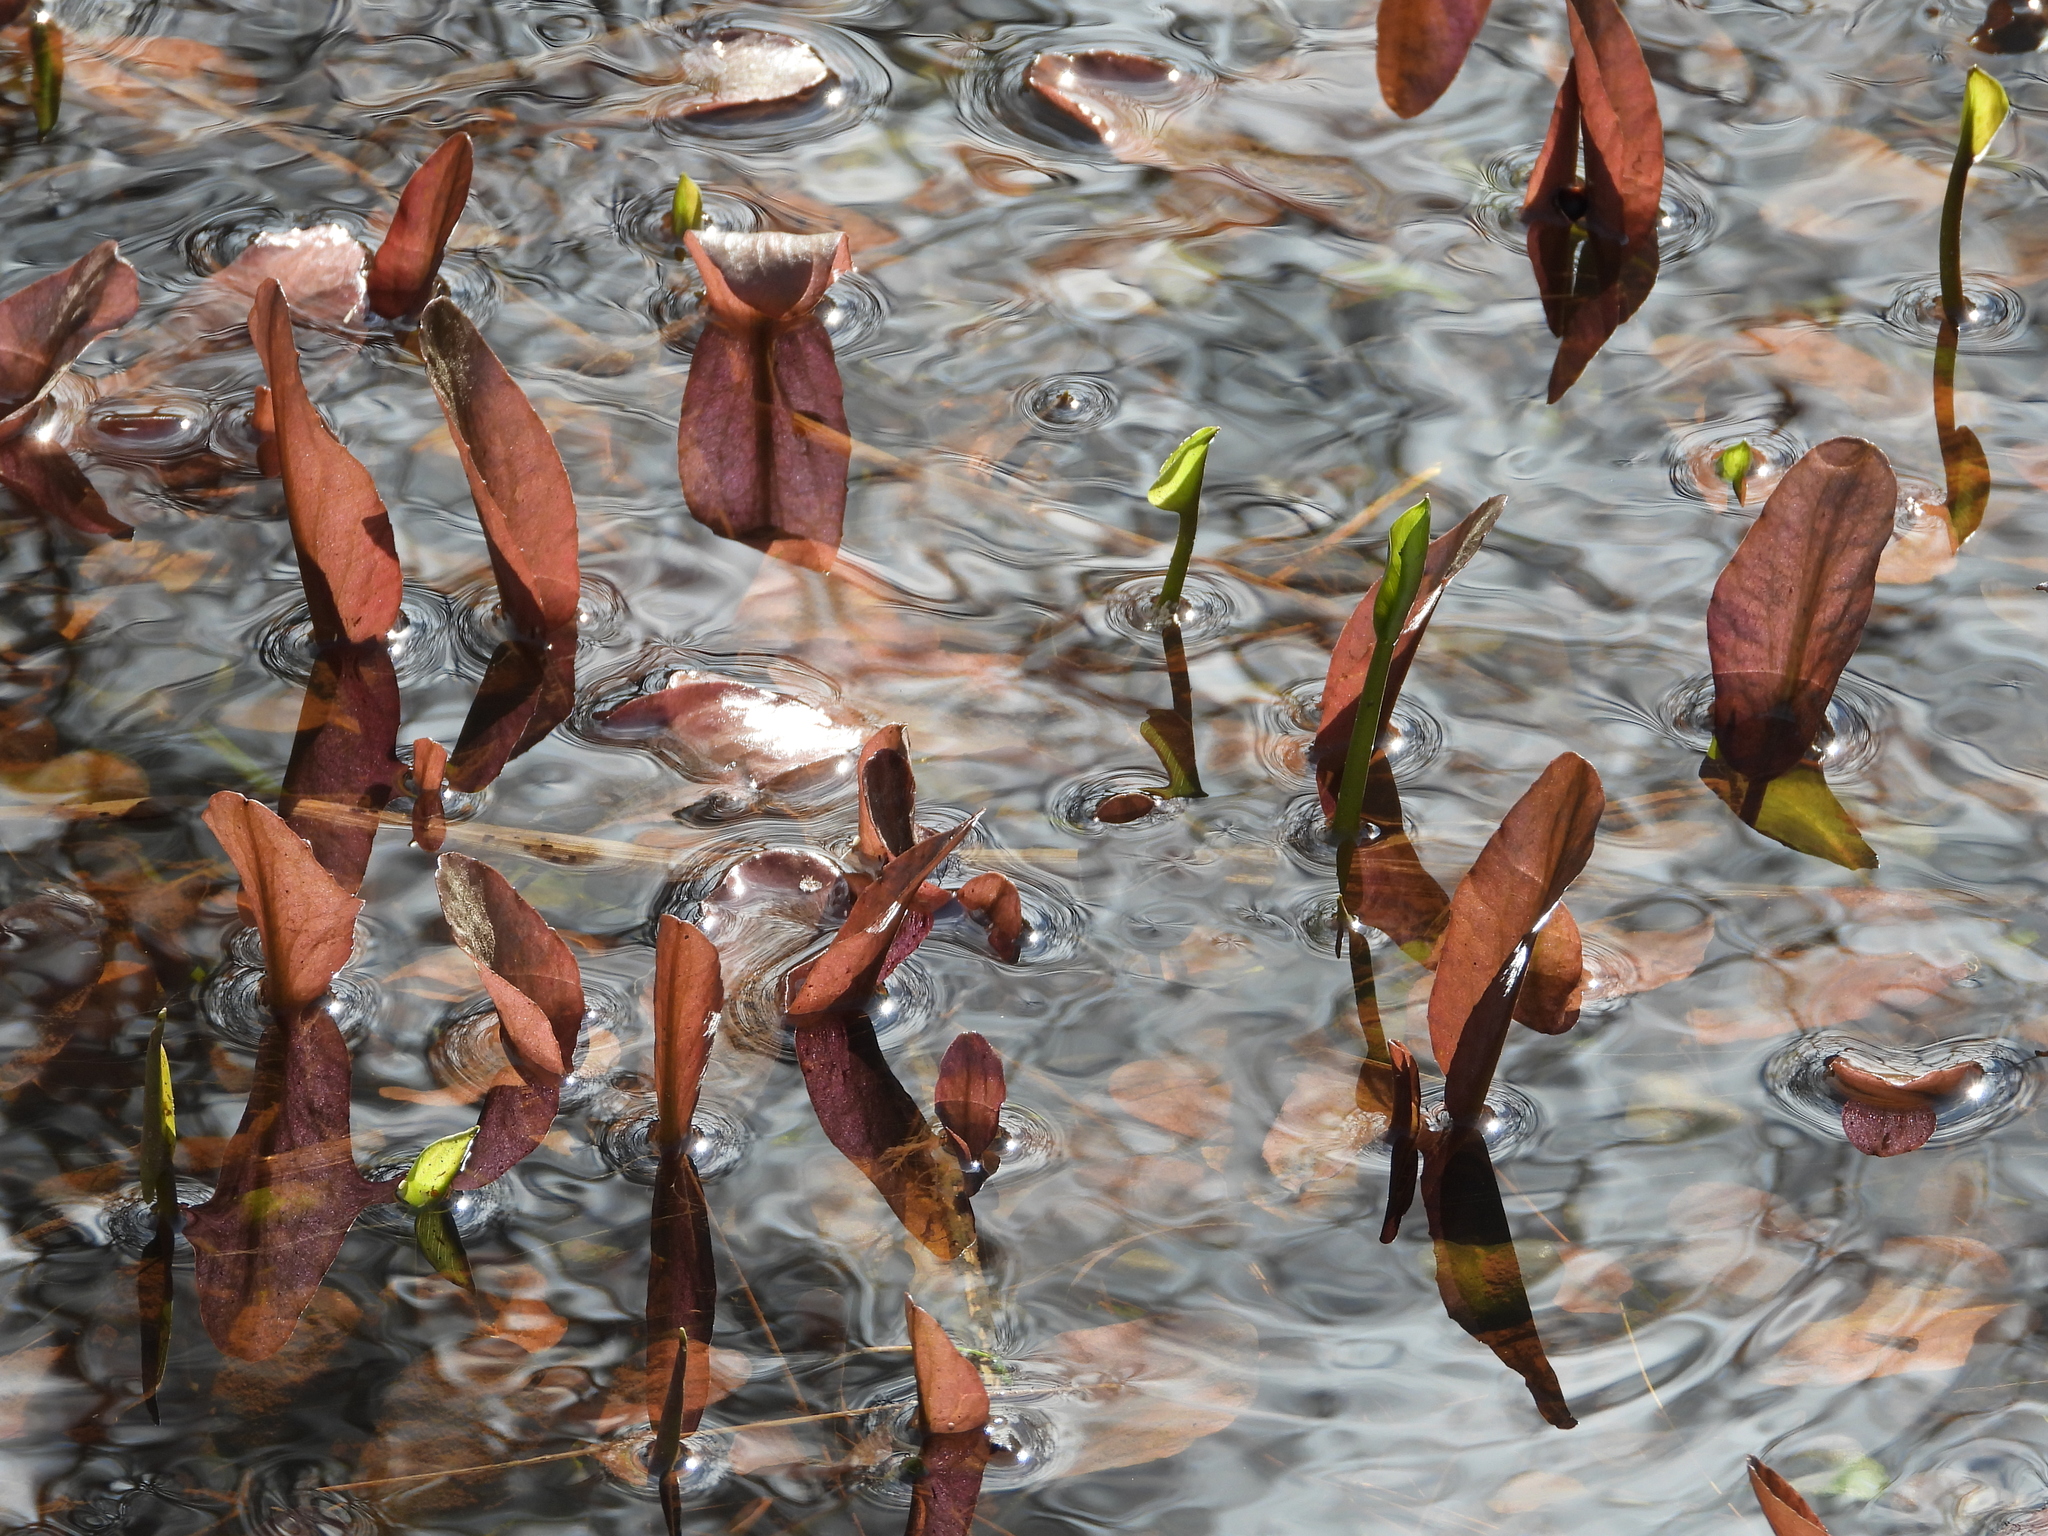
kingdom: Plantae
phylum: Tracheophyta
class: Liliopsida
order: Alismatales
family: Potamogetonaceae
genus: Potamogeton
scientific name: Potamogeton natans
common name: Broad-leaved pondweed
